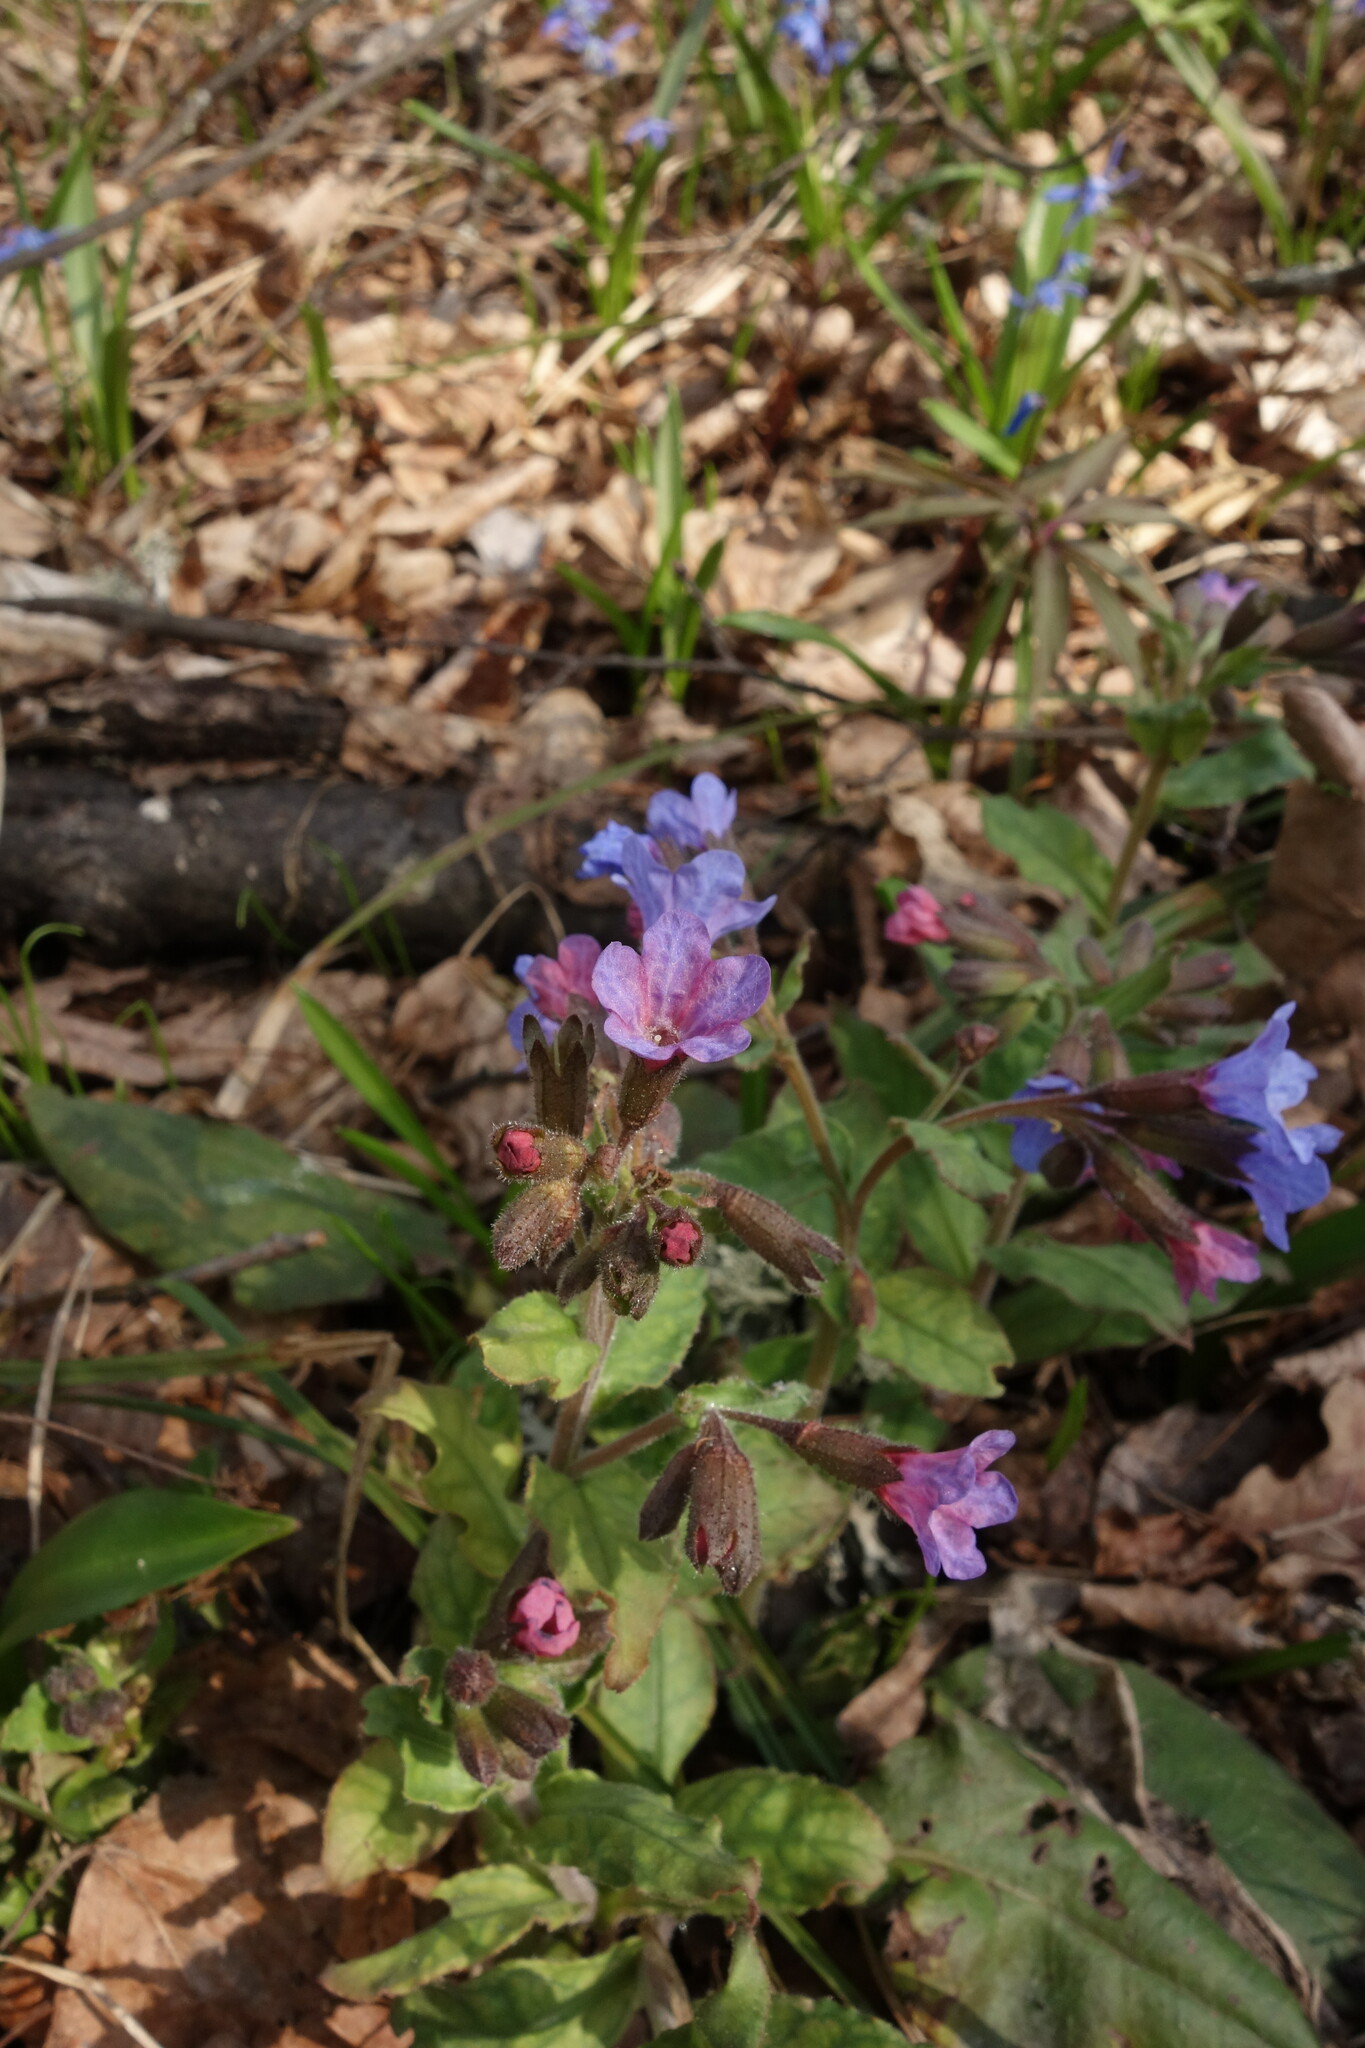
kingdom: Plantae
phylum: Tracheophyta
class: Magnoliopsida
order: Boraginales
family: Boraginaceae
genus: Pulmonaria
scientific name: Pulmonaria obscura
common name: Suffolk lungwort
